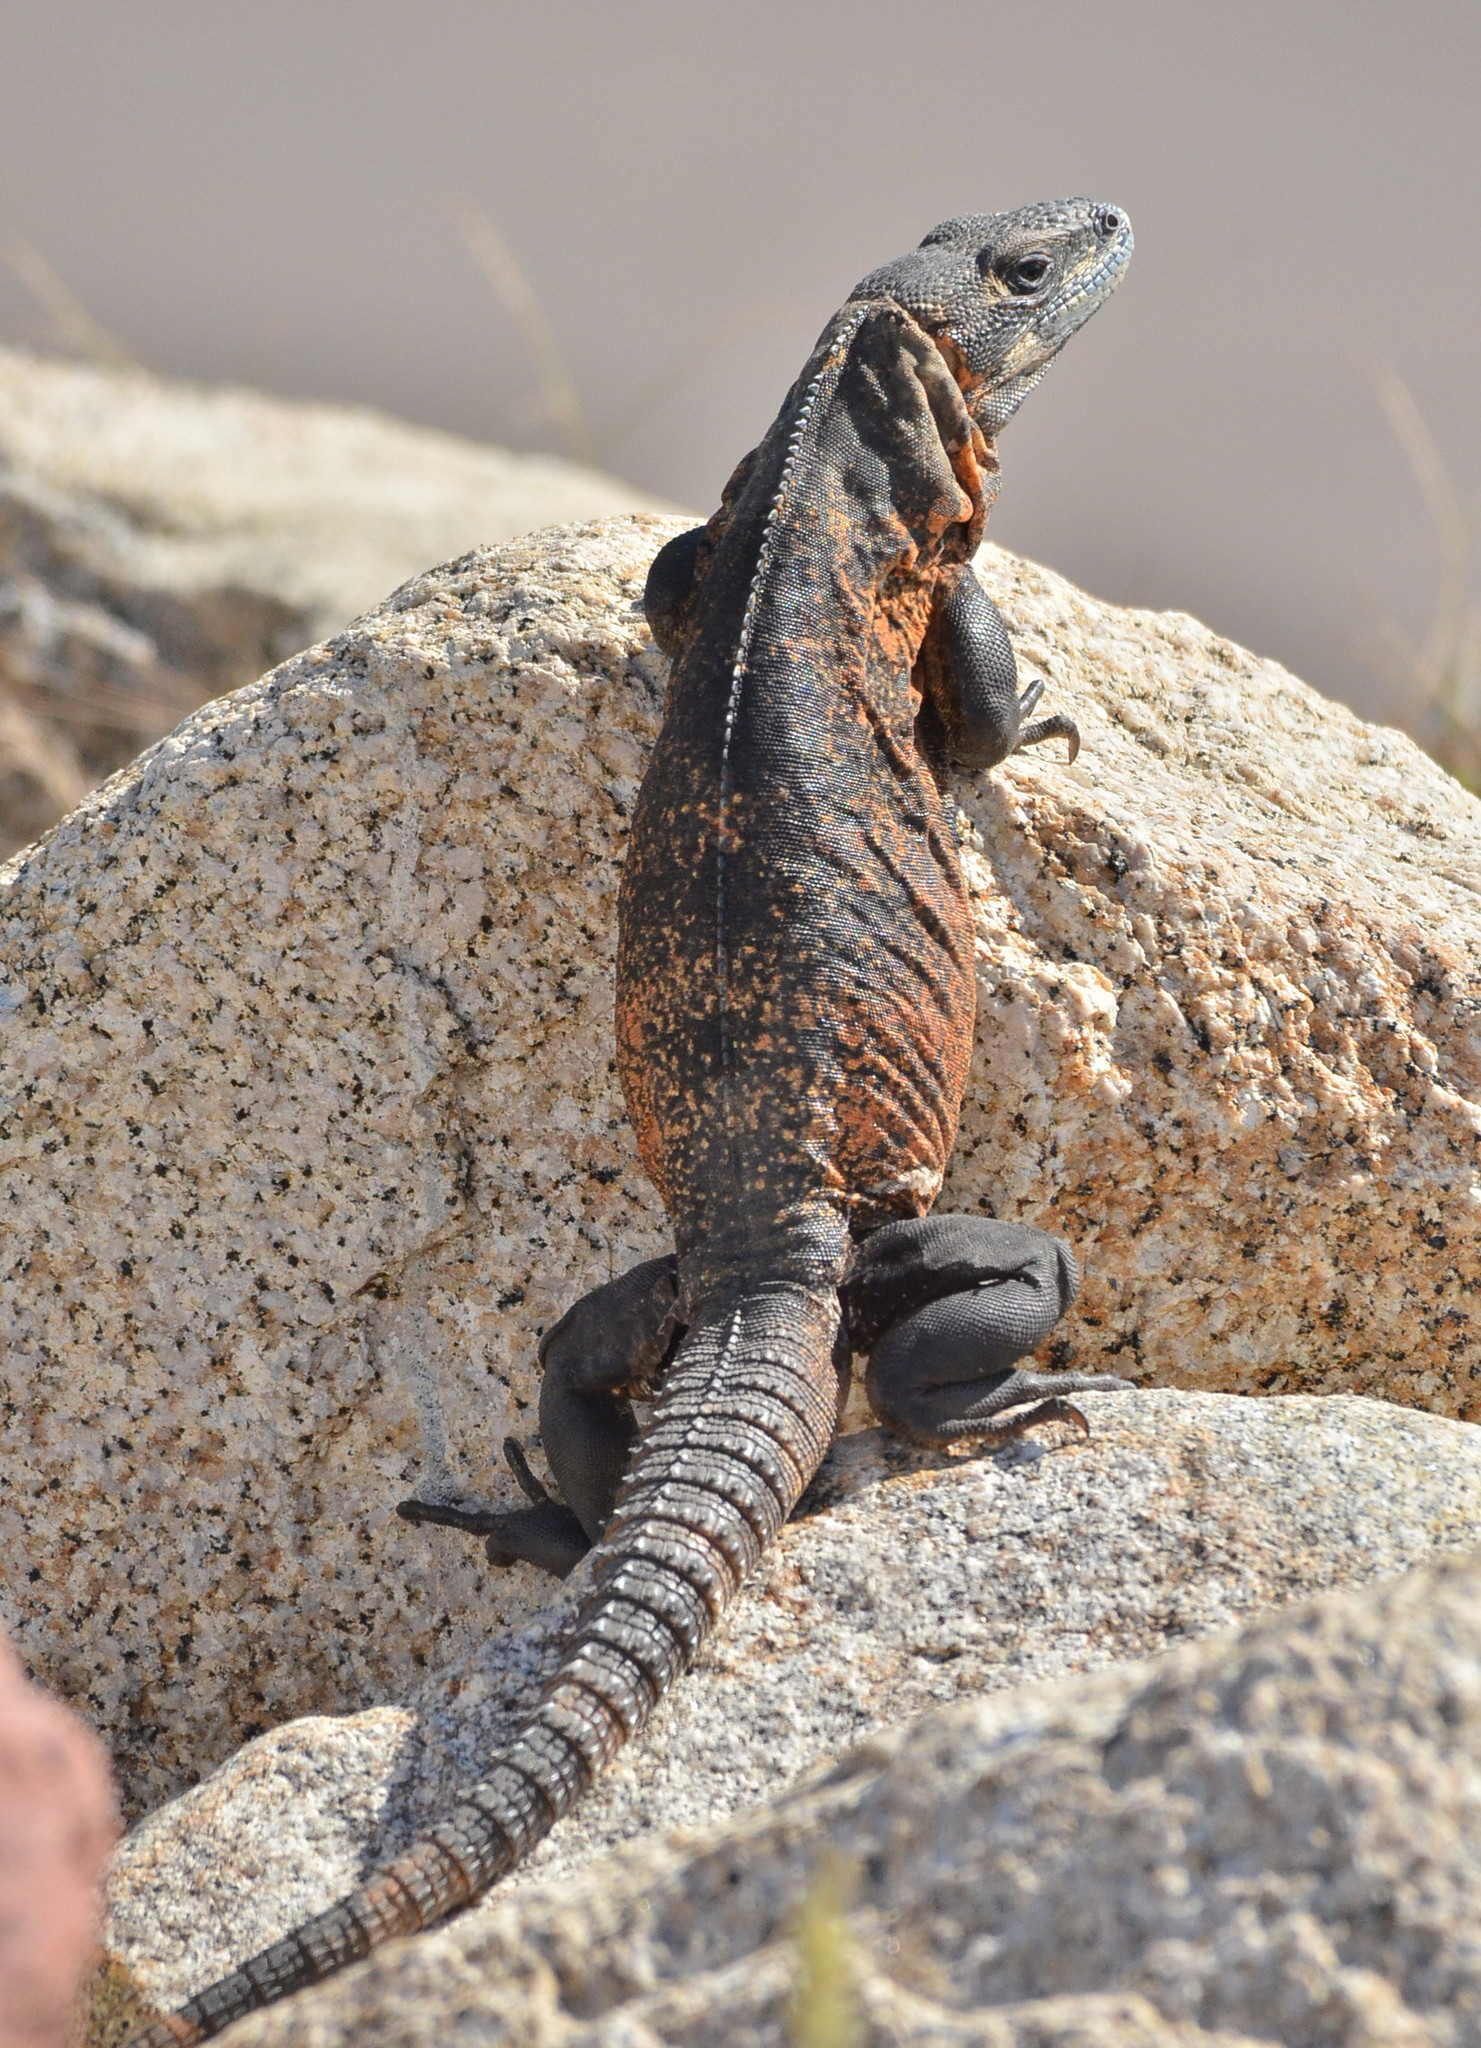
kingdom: Animalia
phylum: Chordata
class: Squamata
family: Iguanidae
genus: Ctenosaura
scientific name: Ctenosaura pectinata
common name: Guerreran spiny-tailed iguana
